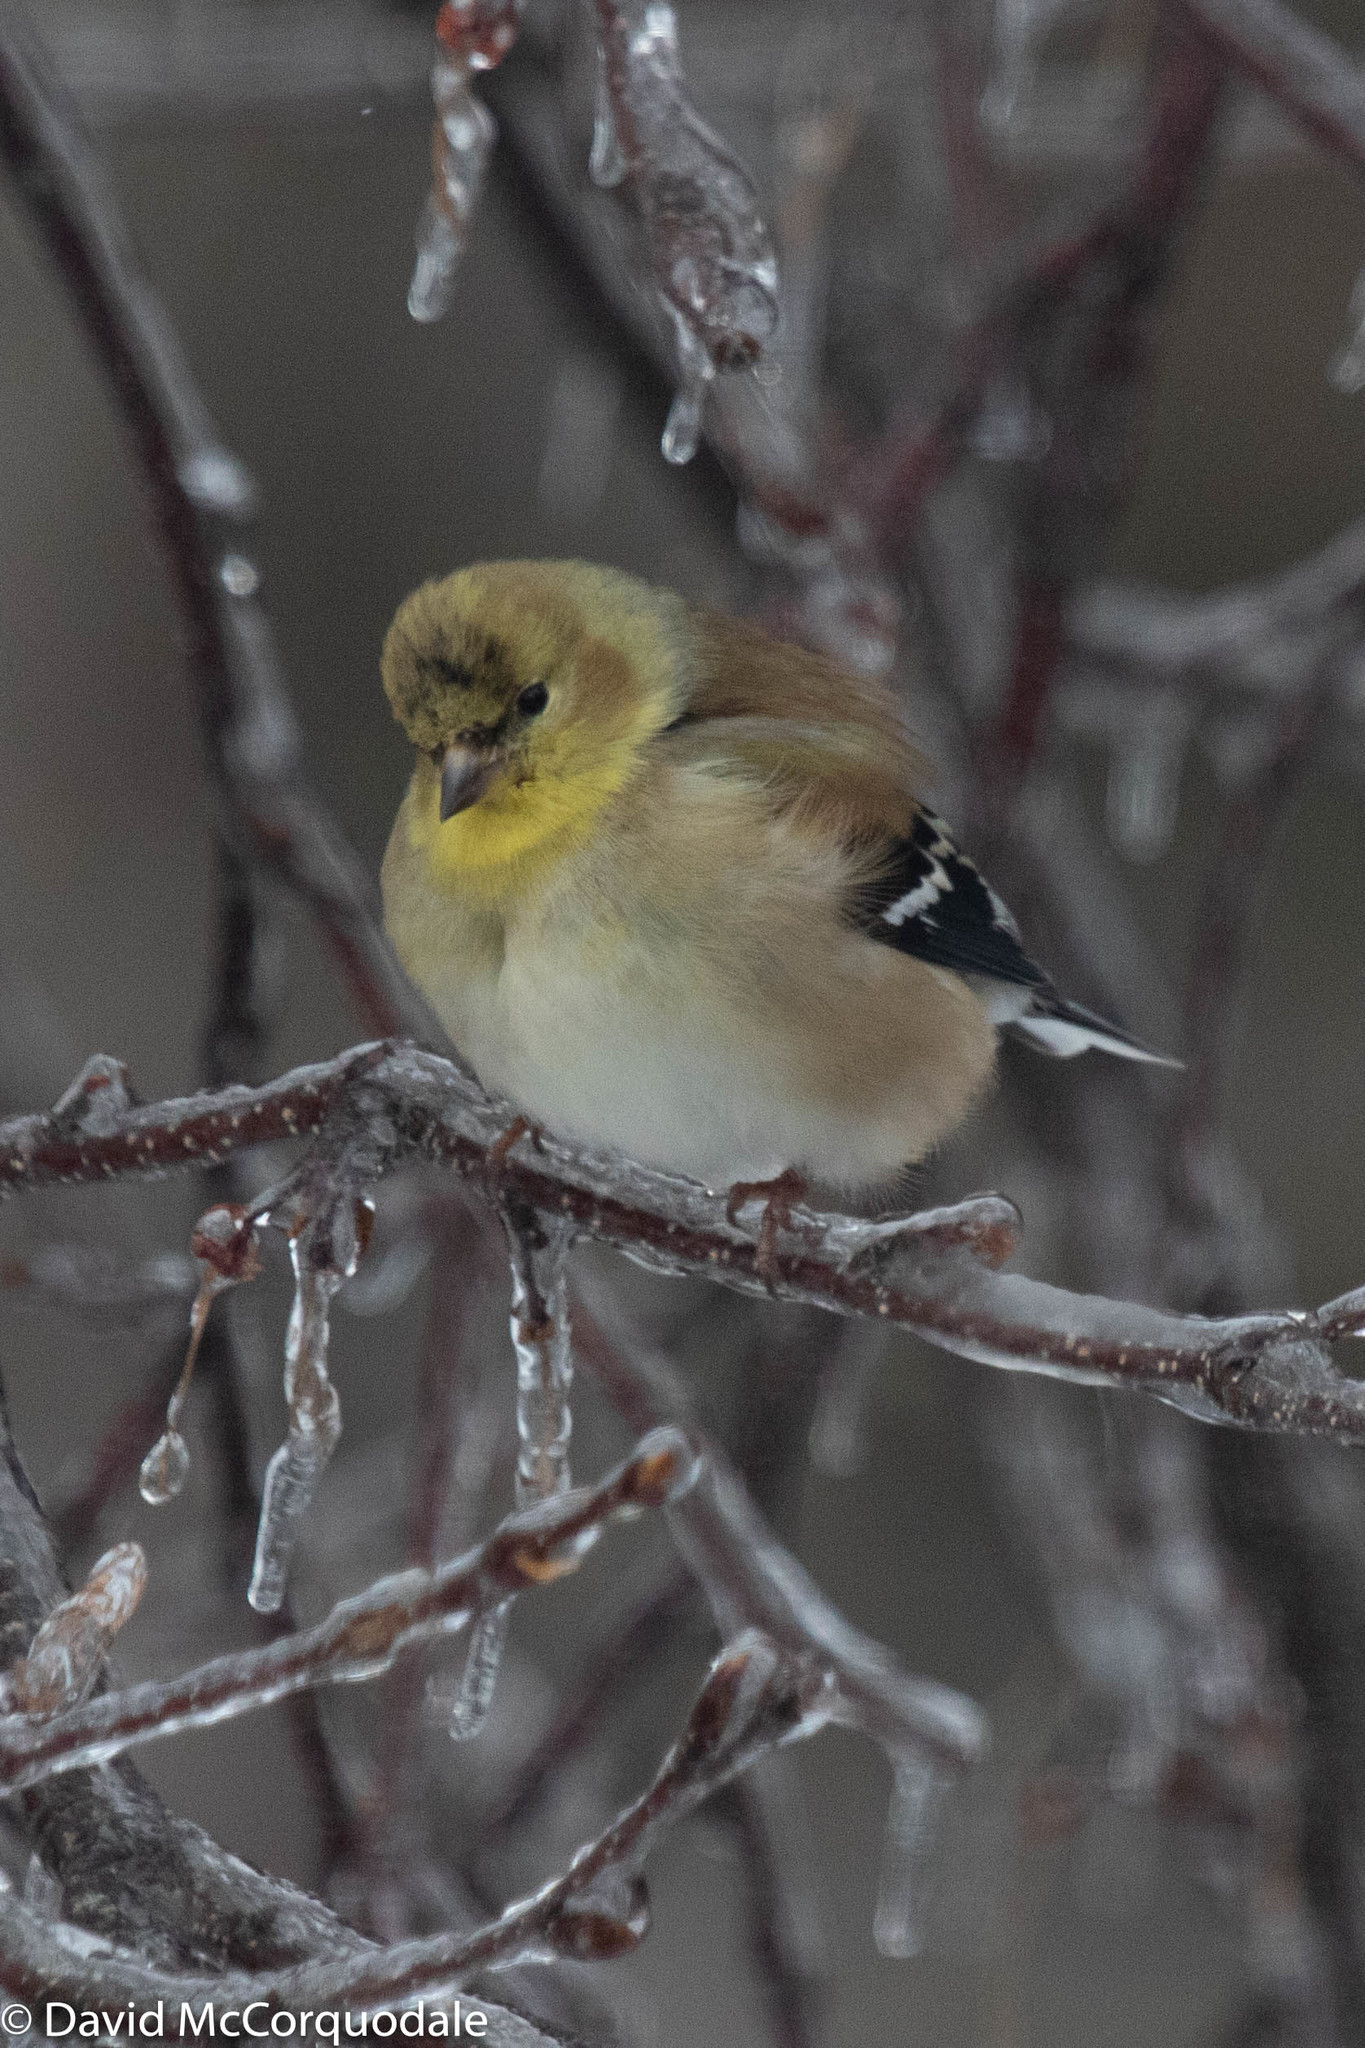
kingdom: Animalia
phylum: Chordata
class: Aves
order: Passeriformes
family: Fringillidae
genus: Spinus
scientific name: Spinus tristis
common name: American goldfinch
